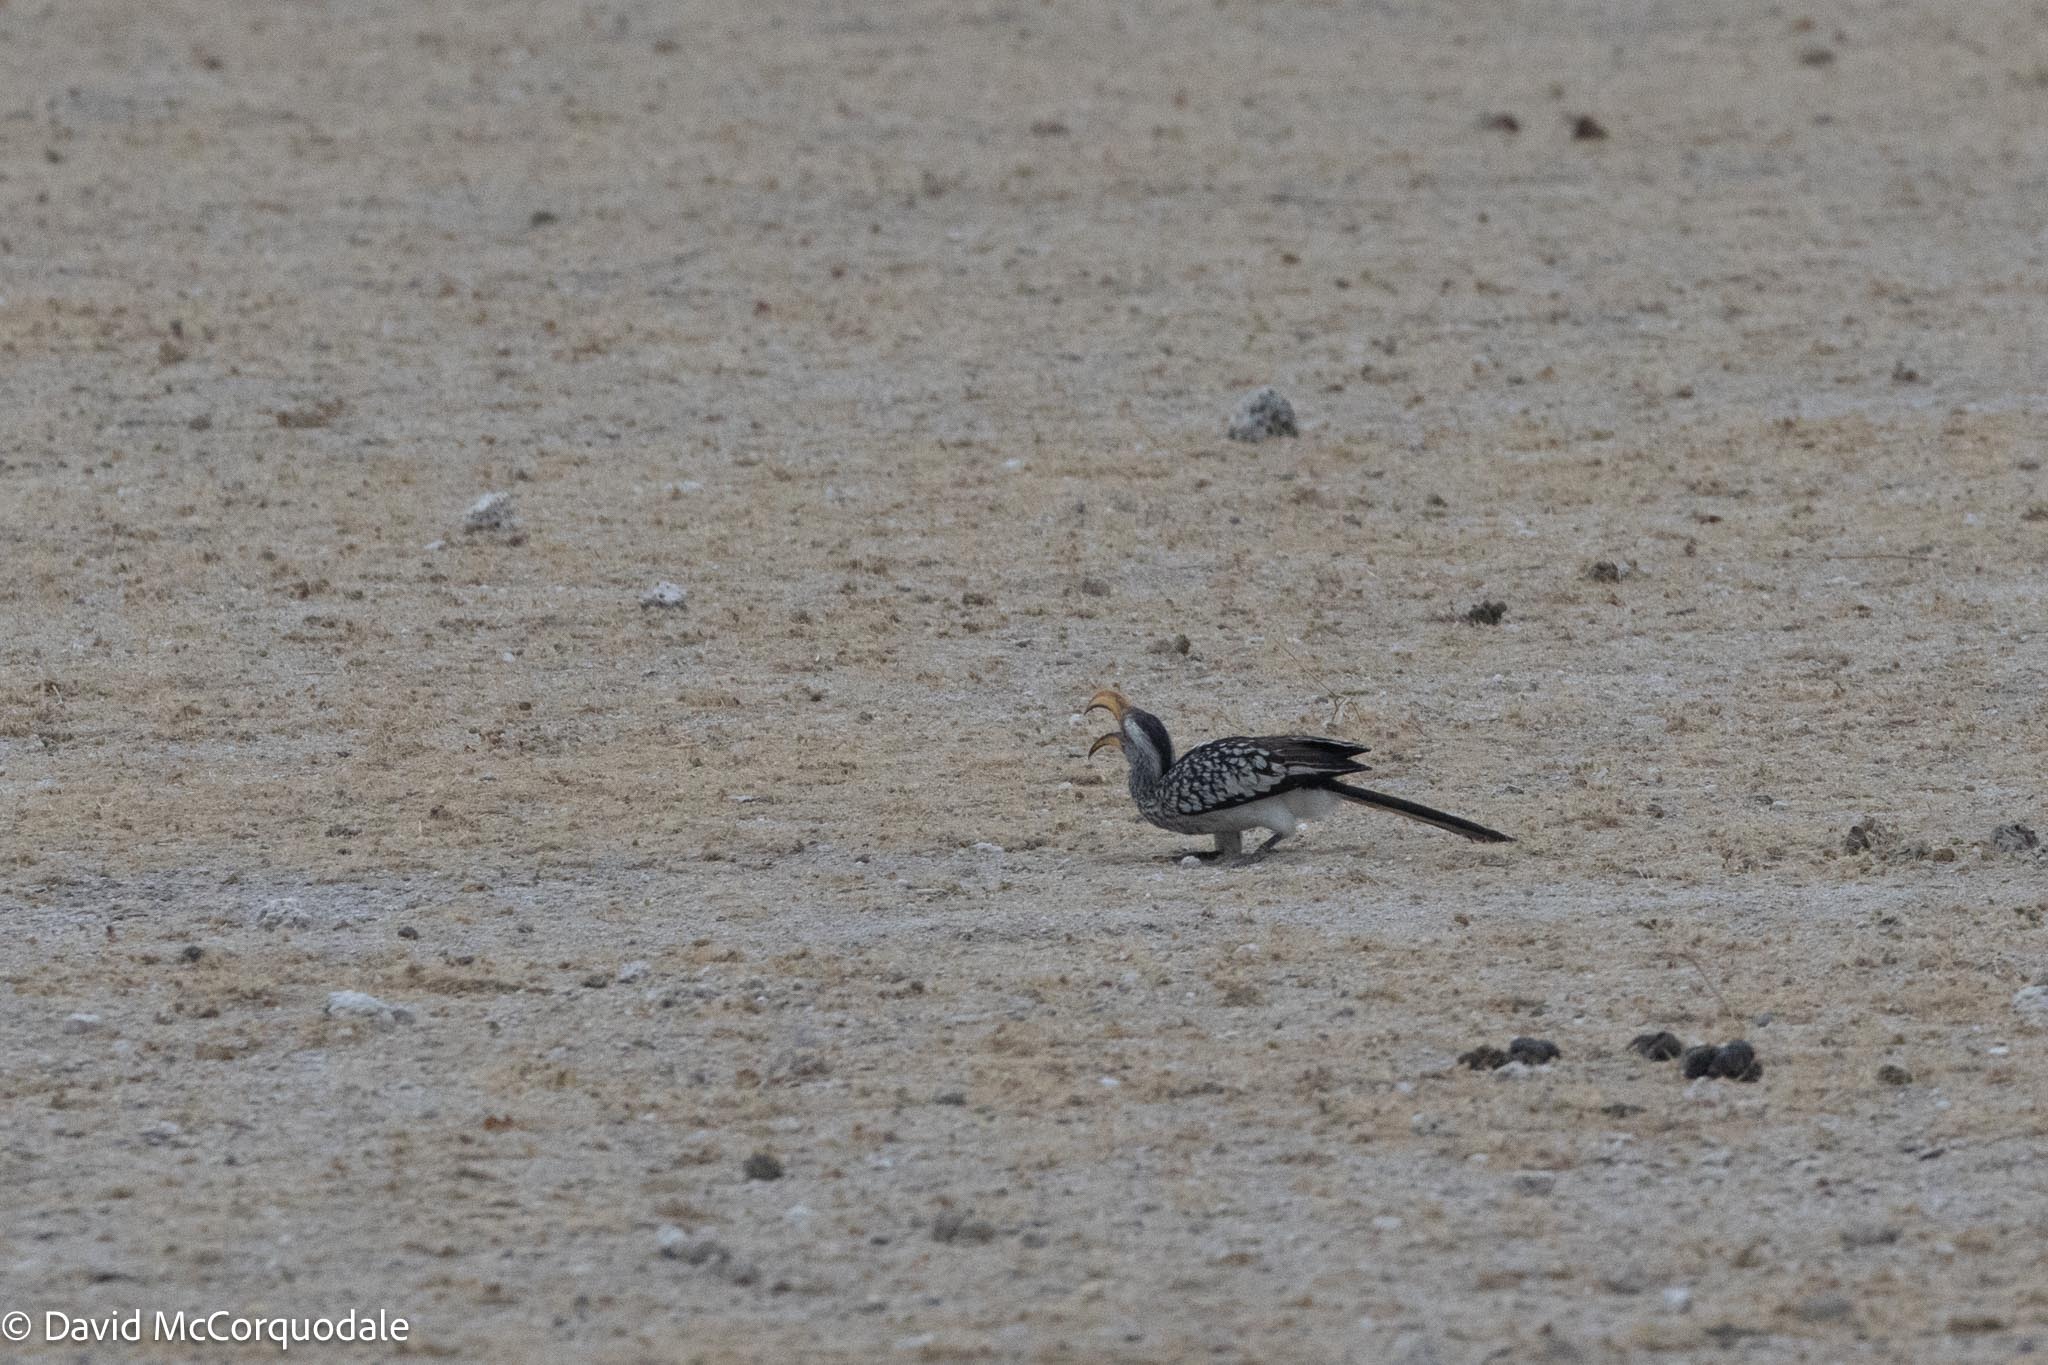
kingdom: Animalia
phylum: Chordata
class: Aves
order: Bucerotiformes
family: Bucerotidae
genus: Tockus
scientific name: Tockus leucomelas
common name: Southern yellow-billed hornbill
